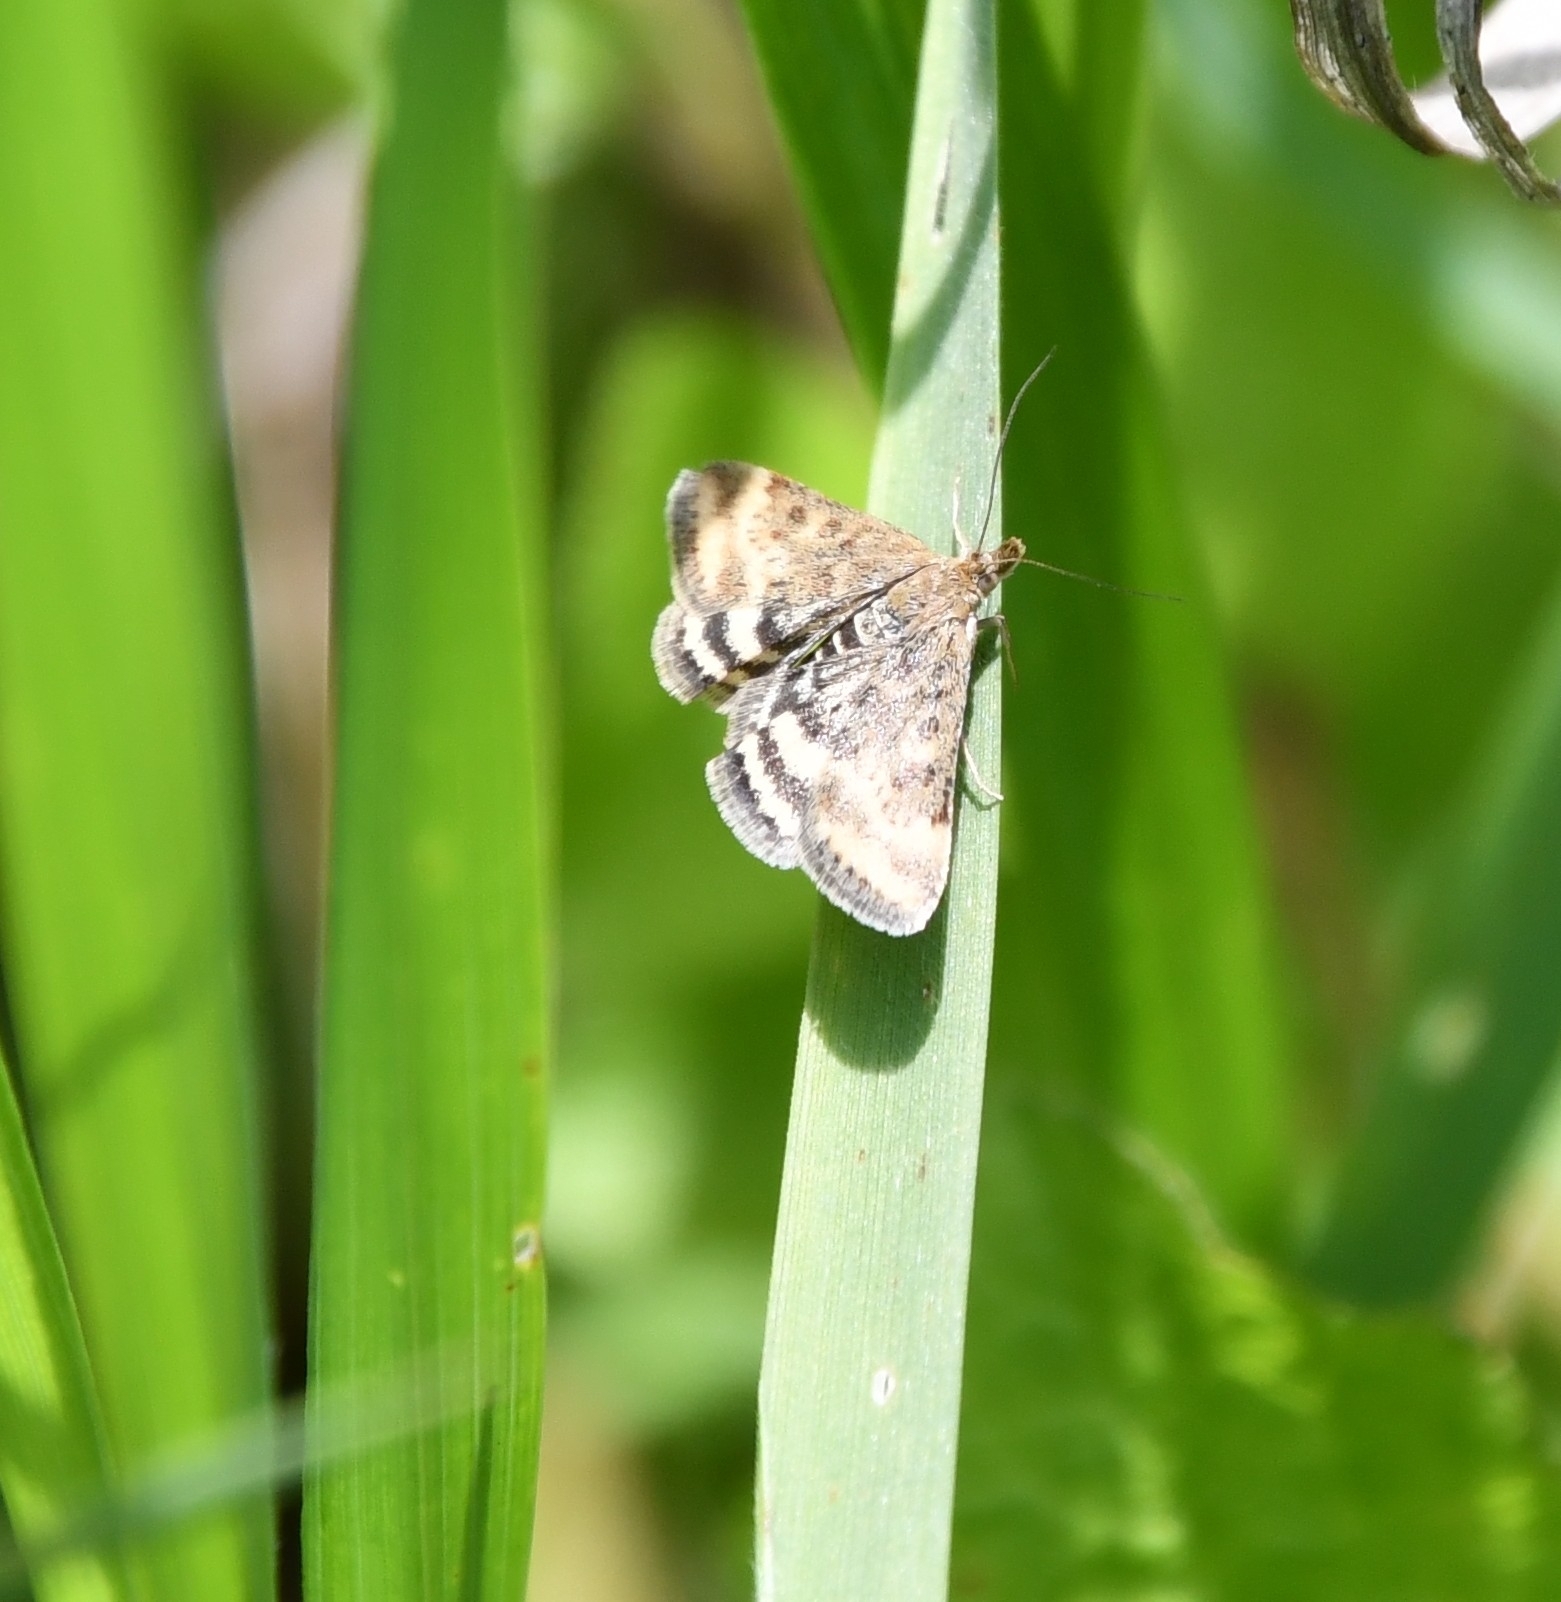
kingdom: Animalia
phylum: Arthropoda
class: Insecta
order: Lepidoptera
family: Crambidae
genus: Pyrausta
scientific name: Pyrausta despicata
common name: Straw-barred pearl
